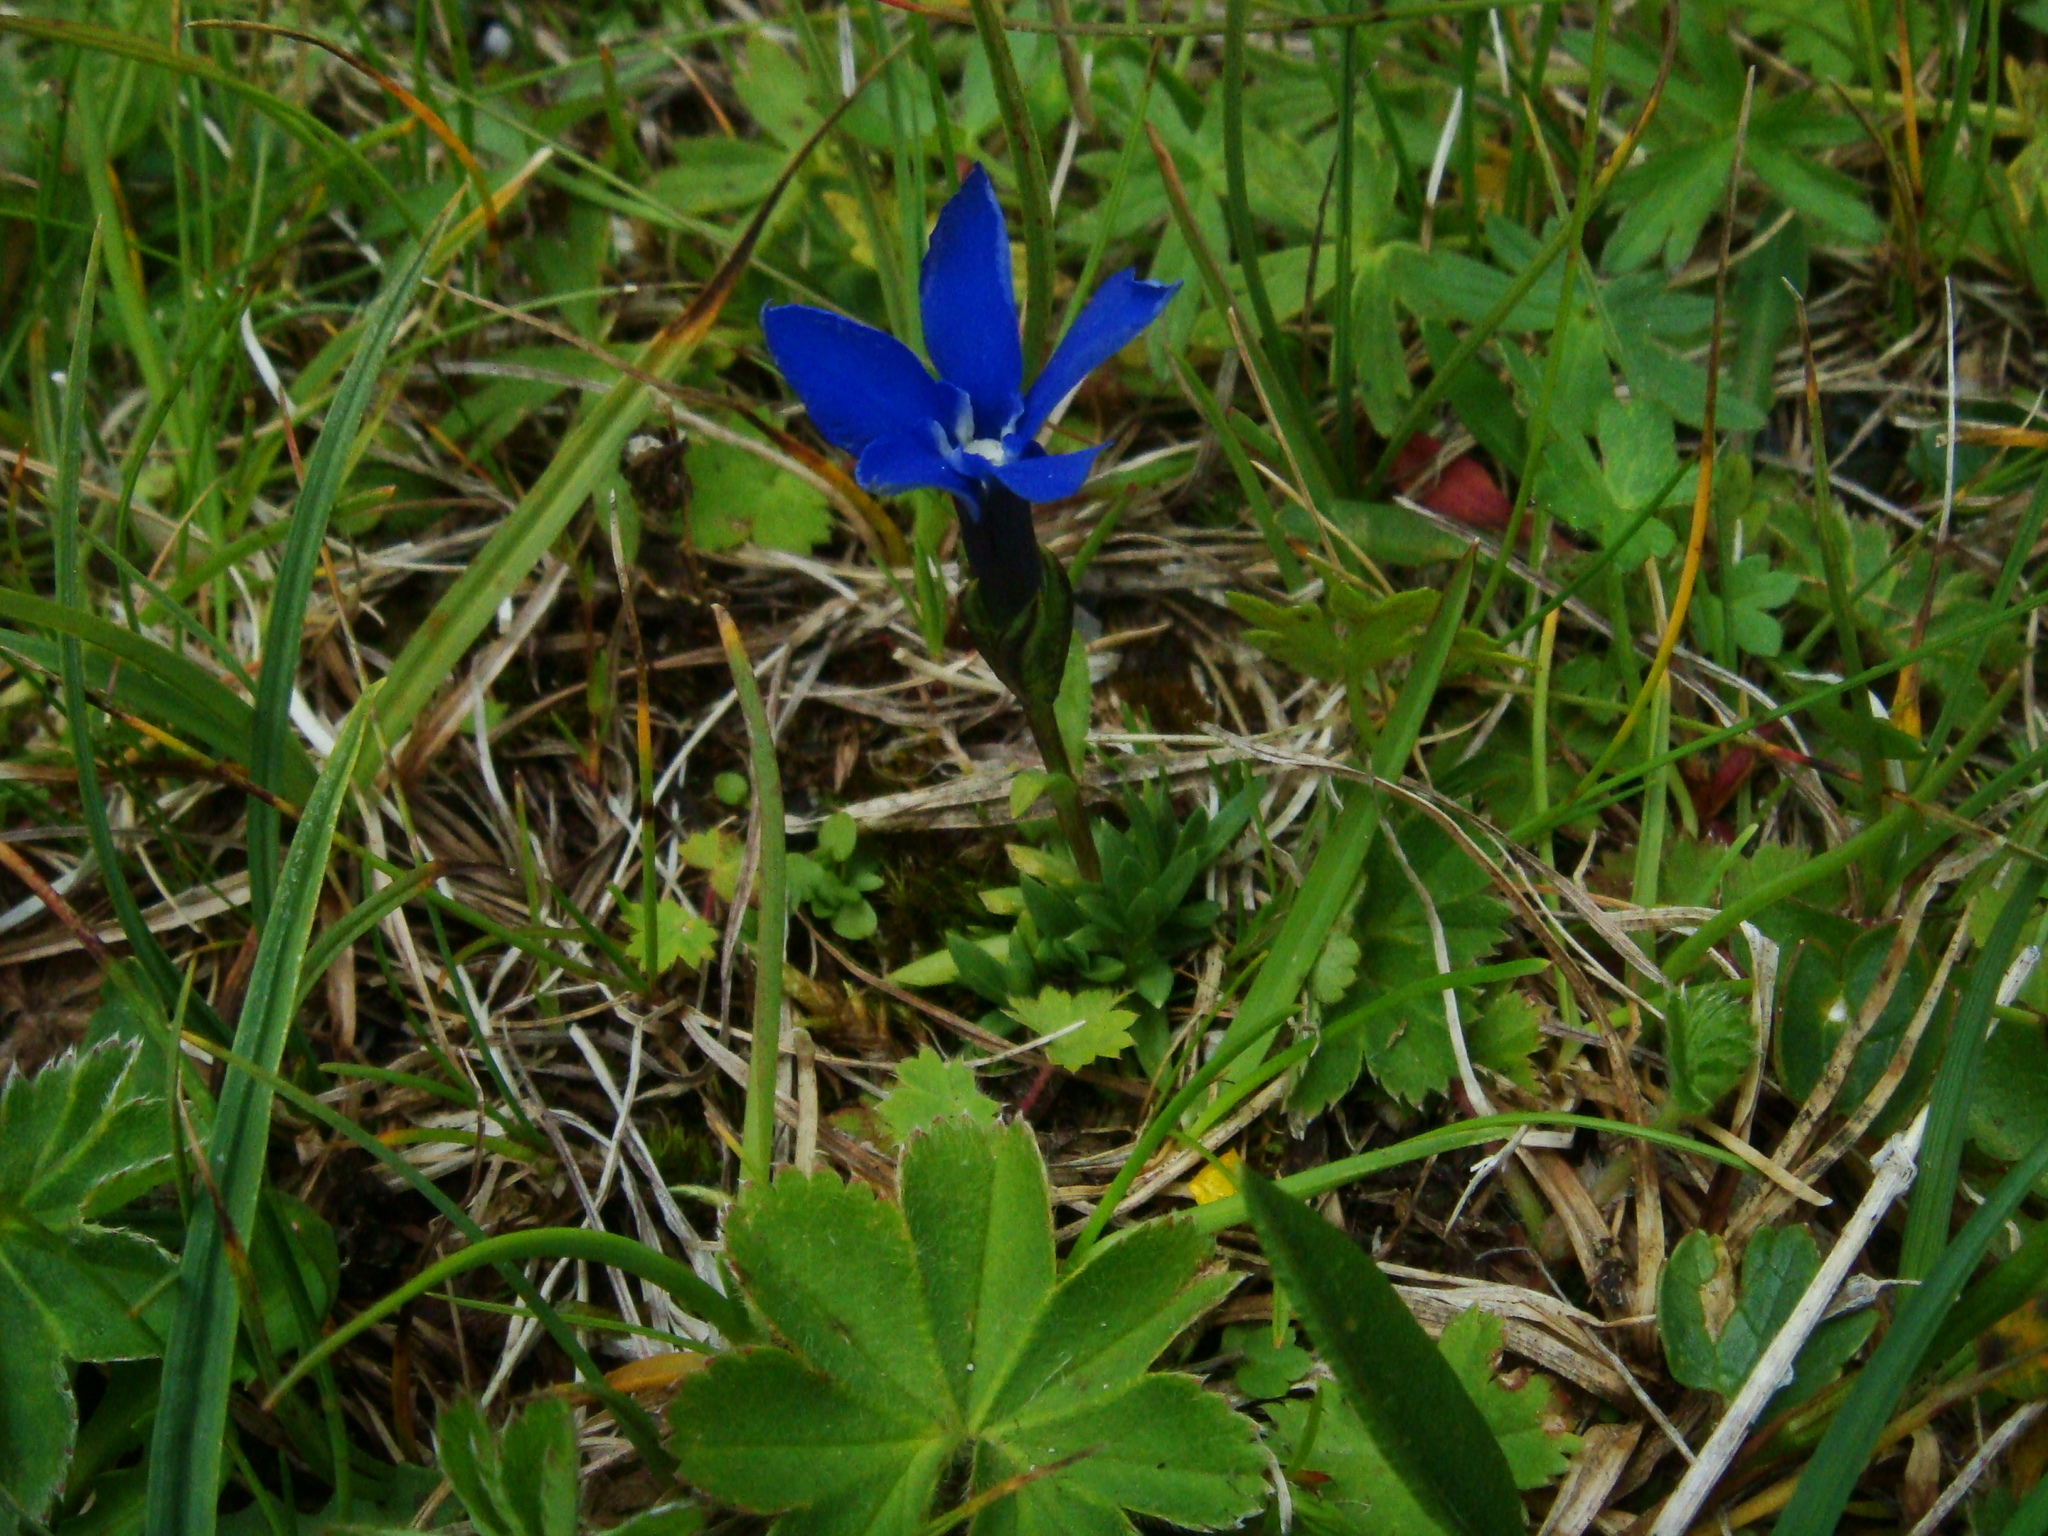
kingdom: Plantae
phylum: Tracheophyta
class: Magnoliopsida
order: Gentianales
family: Gentianaceae
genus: Gentiana
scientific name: Gentiana pumila
